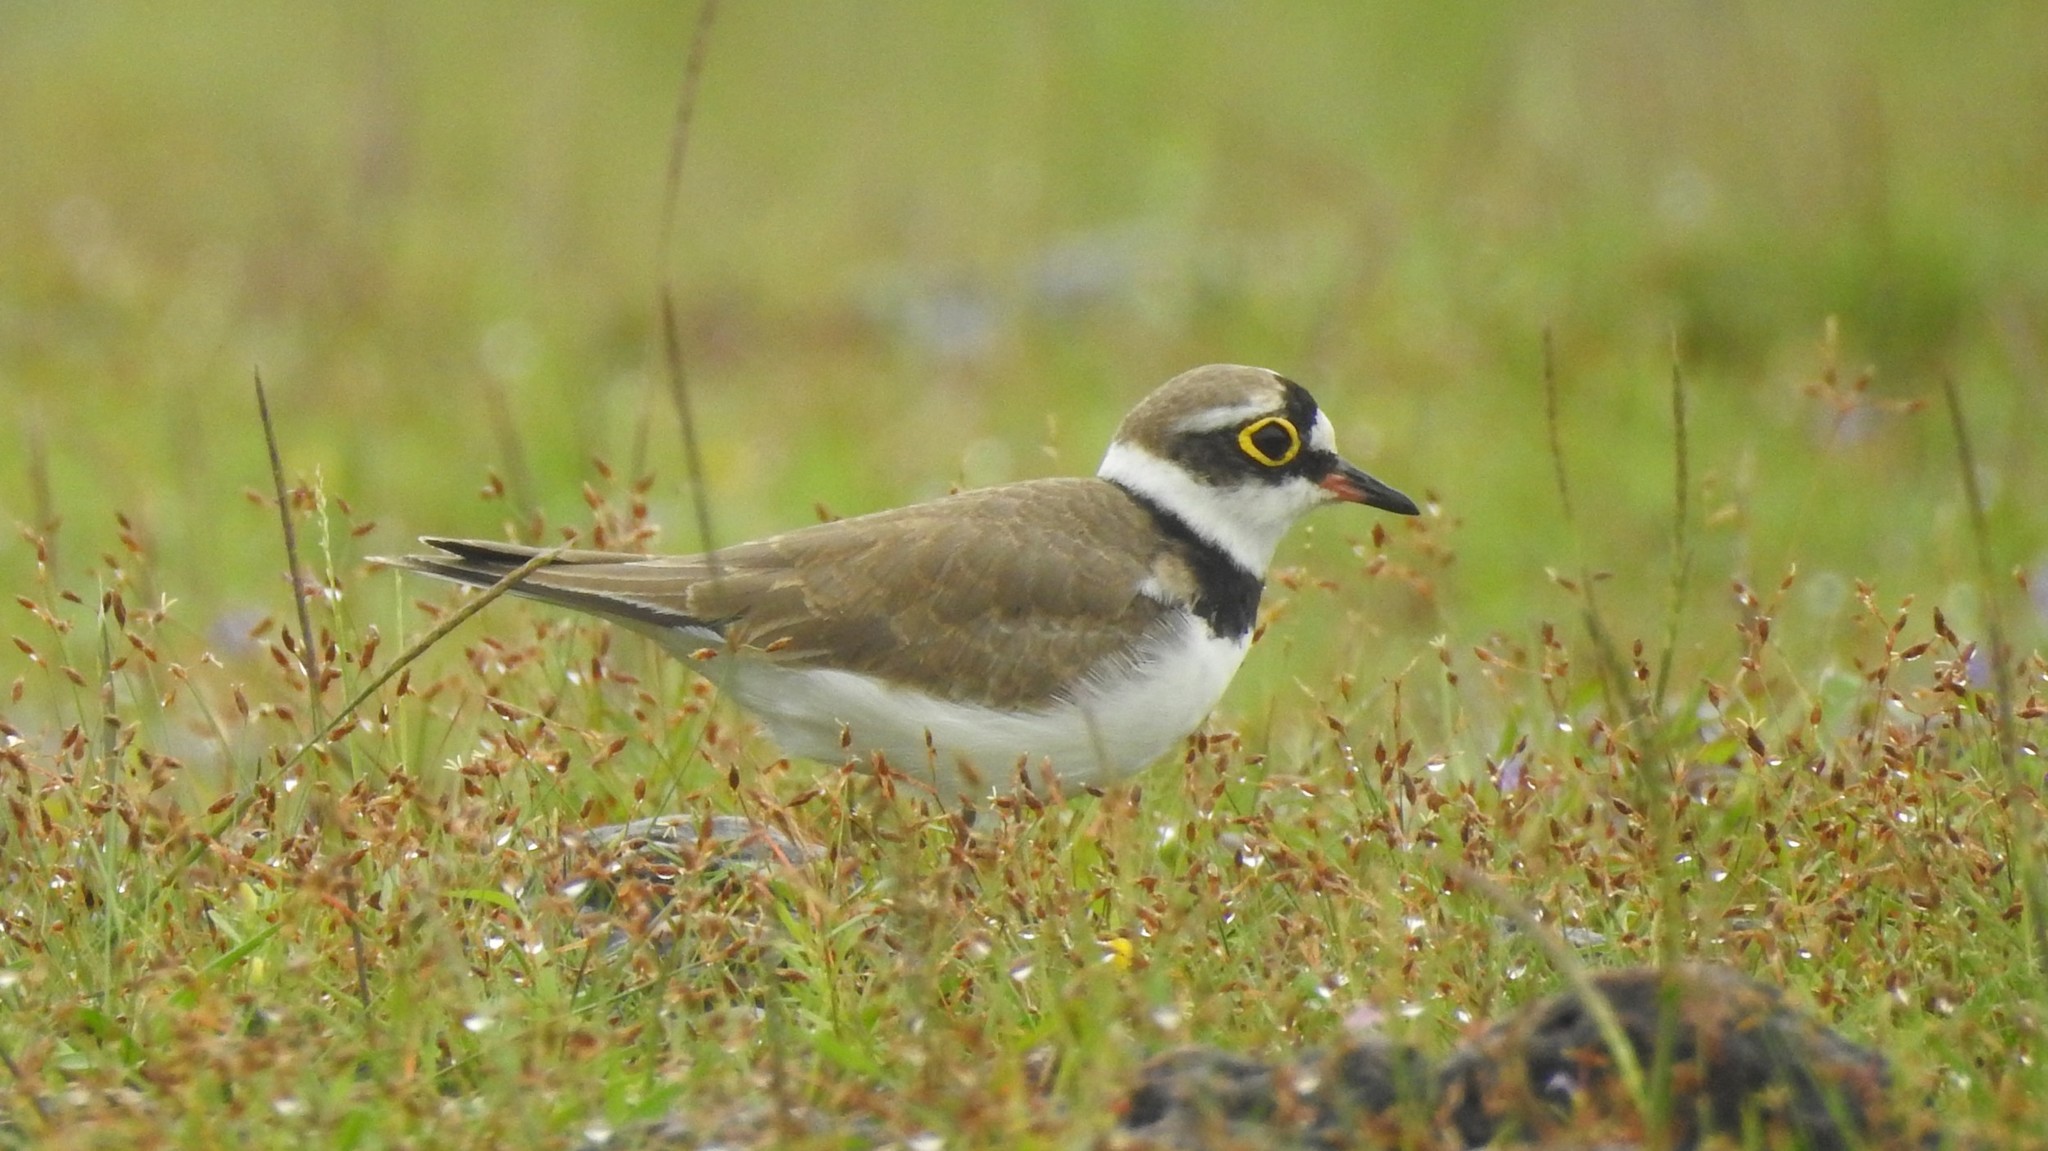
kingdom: Animalia
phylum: Chordata
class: Aves
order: Charadriiformes
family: Charadriidae
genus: Charadrius
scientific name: Charadrius dubius
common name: Little ringed plover
